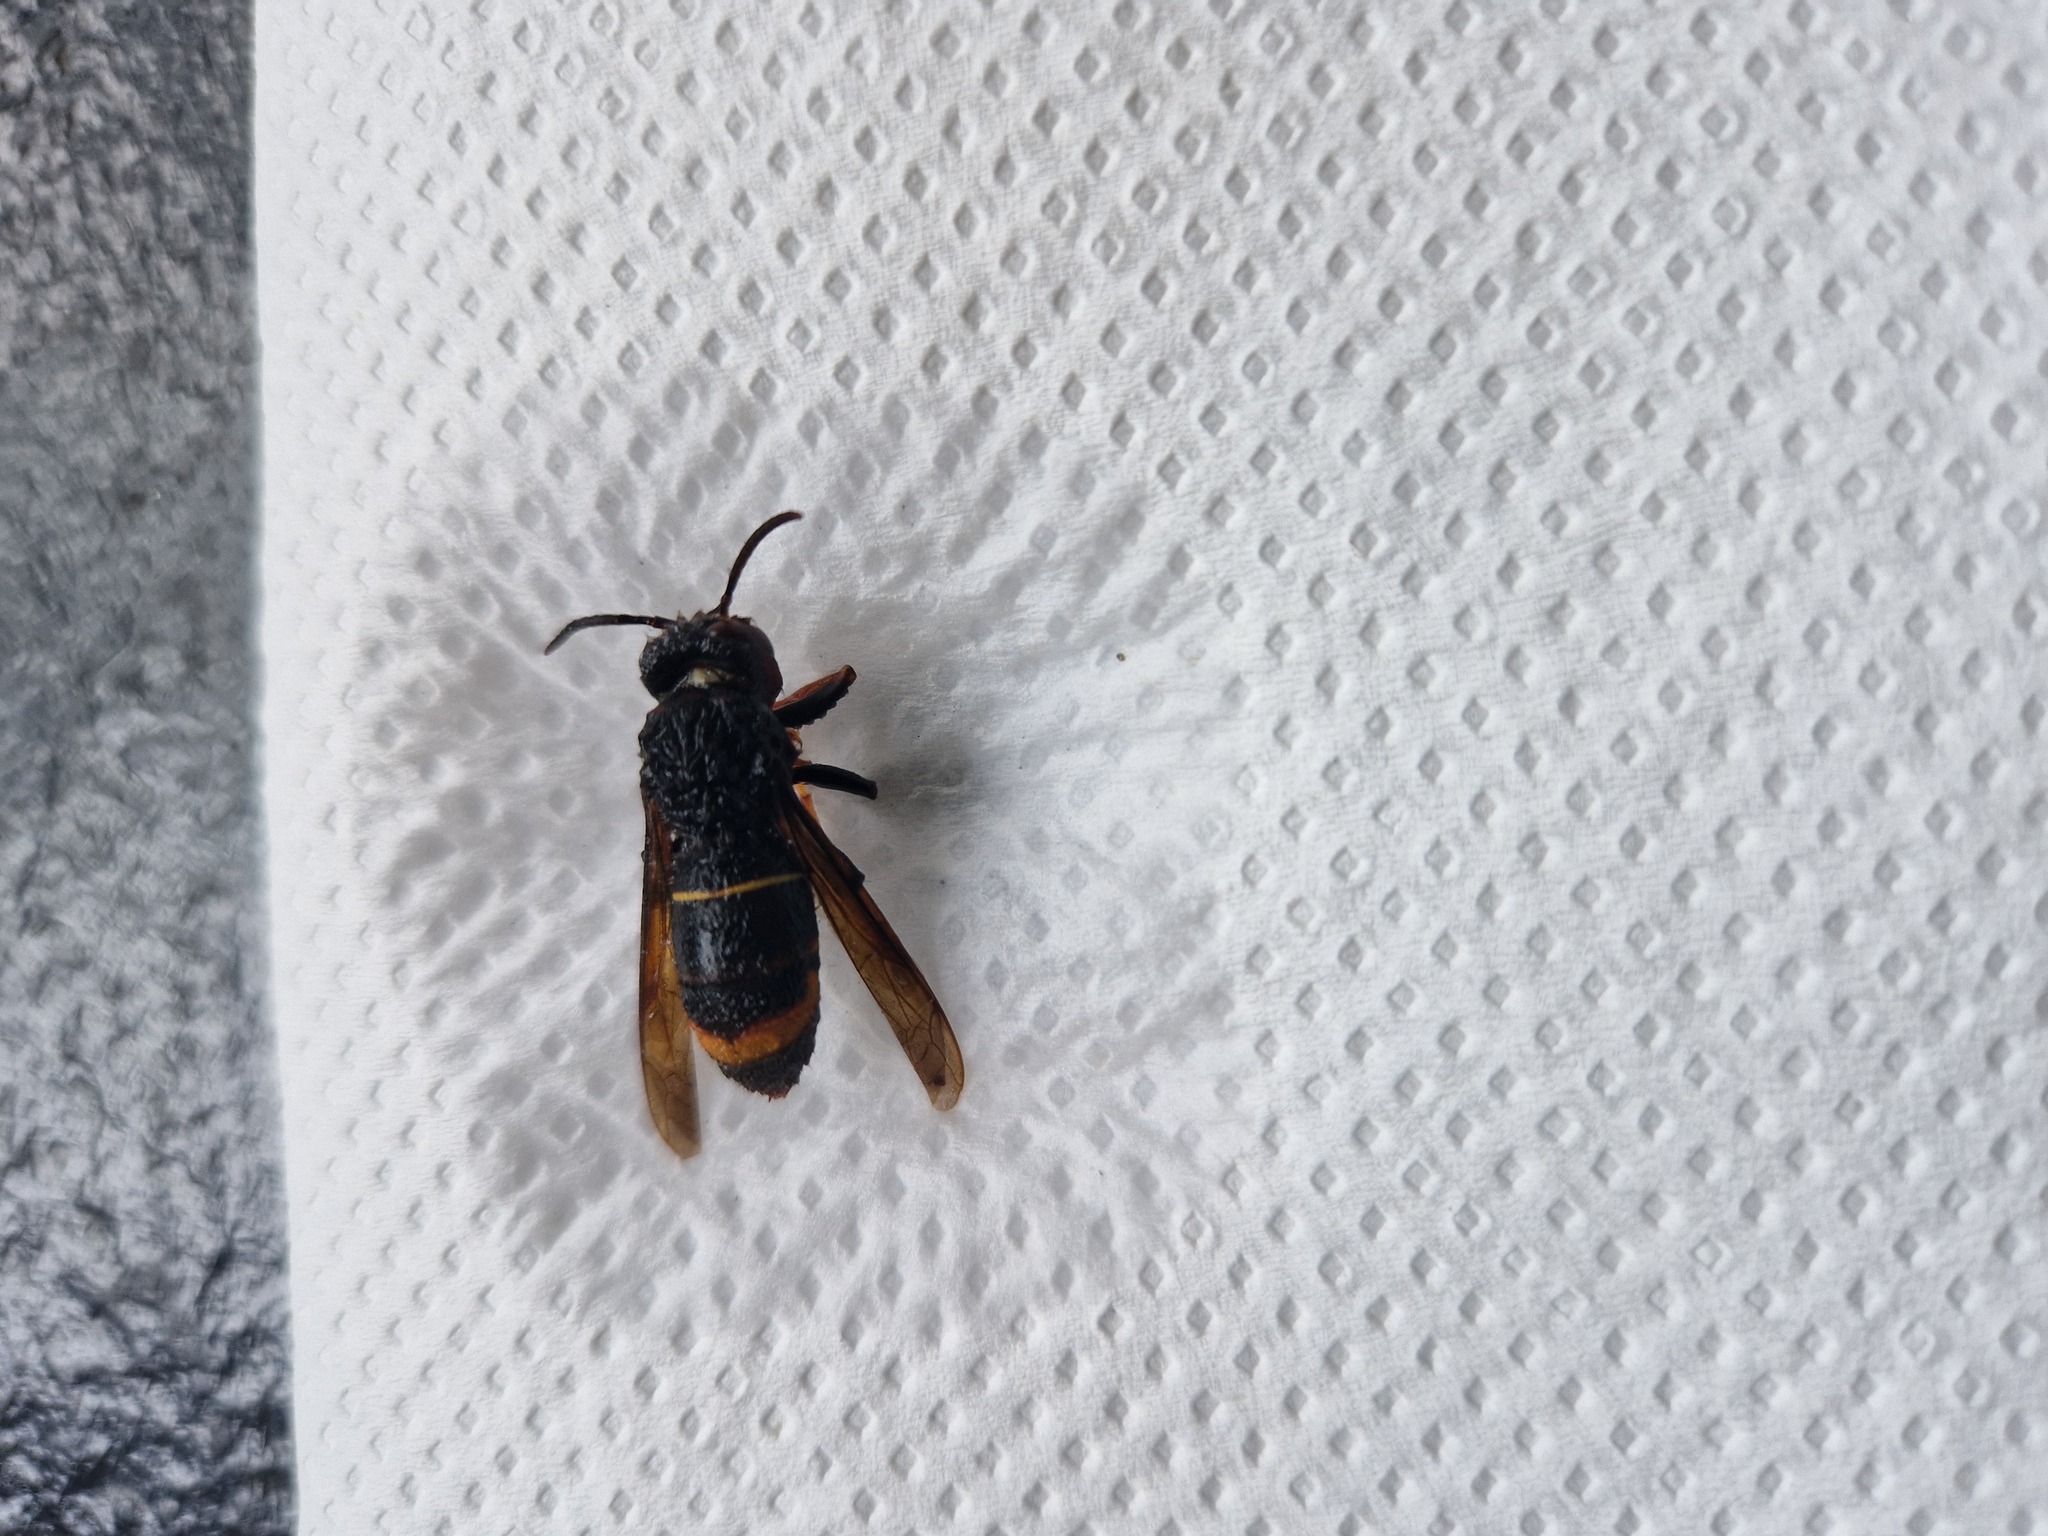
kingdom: Animalia
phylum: Arthropoda
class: Insecta
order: Hymenoptera
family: Vespidae
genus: Vespa
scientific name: Vespa velutina
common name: Asian hornet
